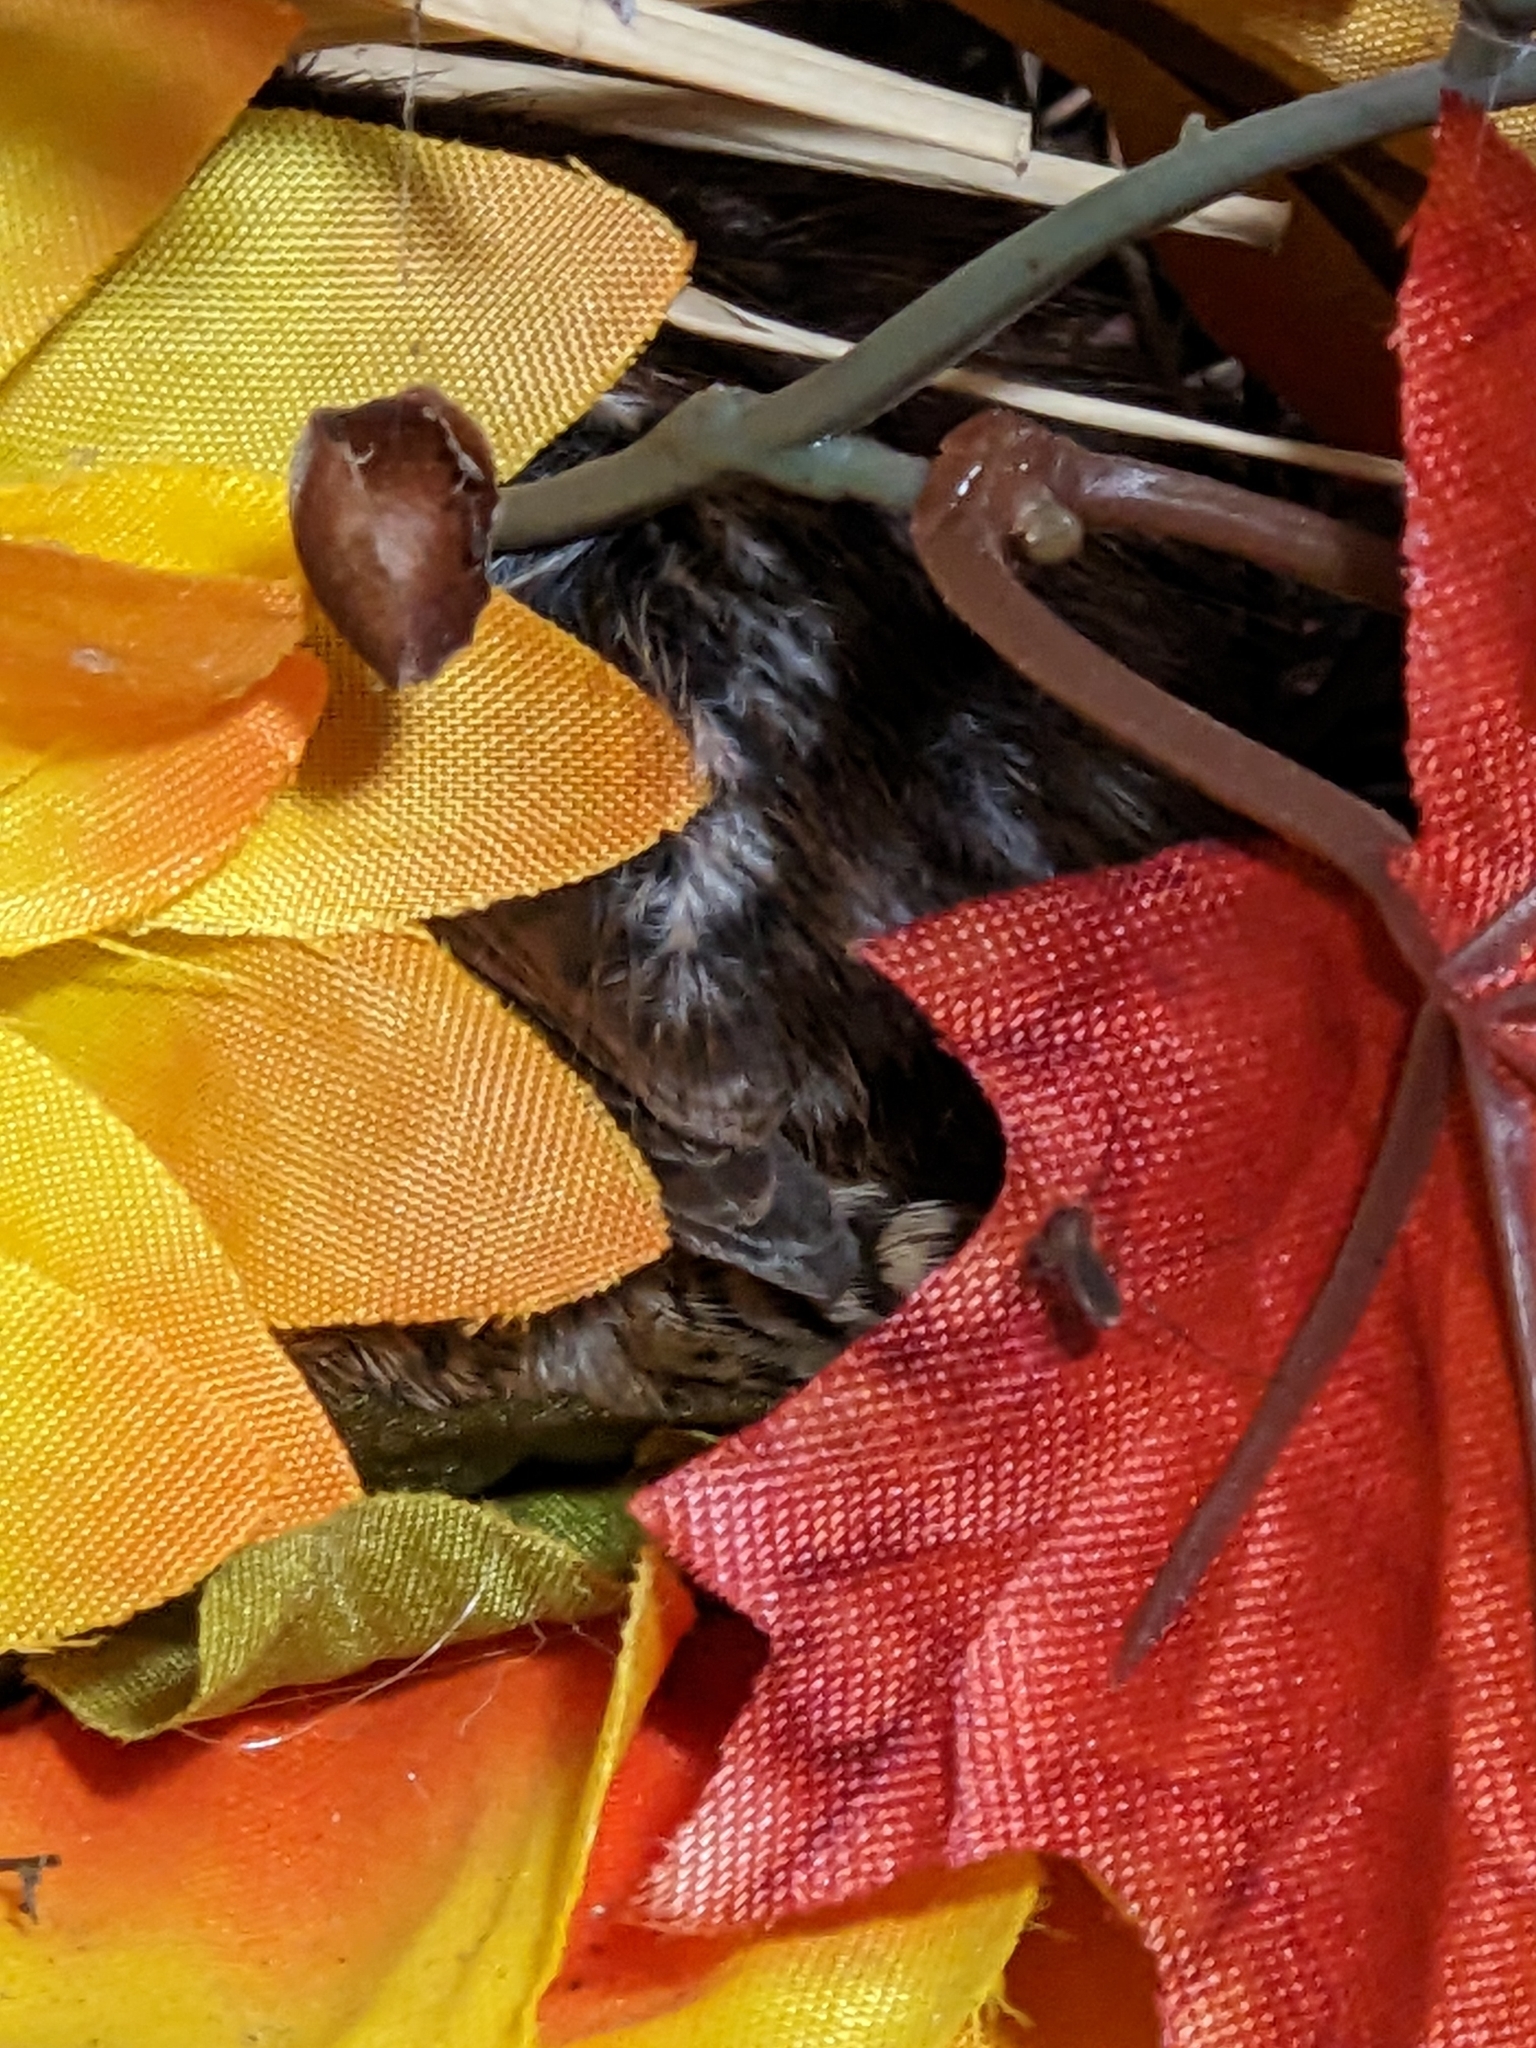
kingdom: Animalia
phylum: Chordata
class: Aves
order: Passeriformes
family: Troglodytidae
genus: Thryothorus
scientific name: Thryothorus ludovicianus
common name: Carolina wren
